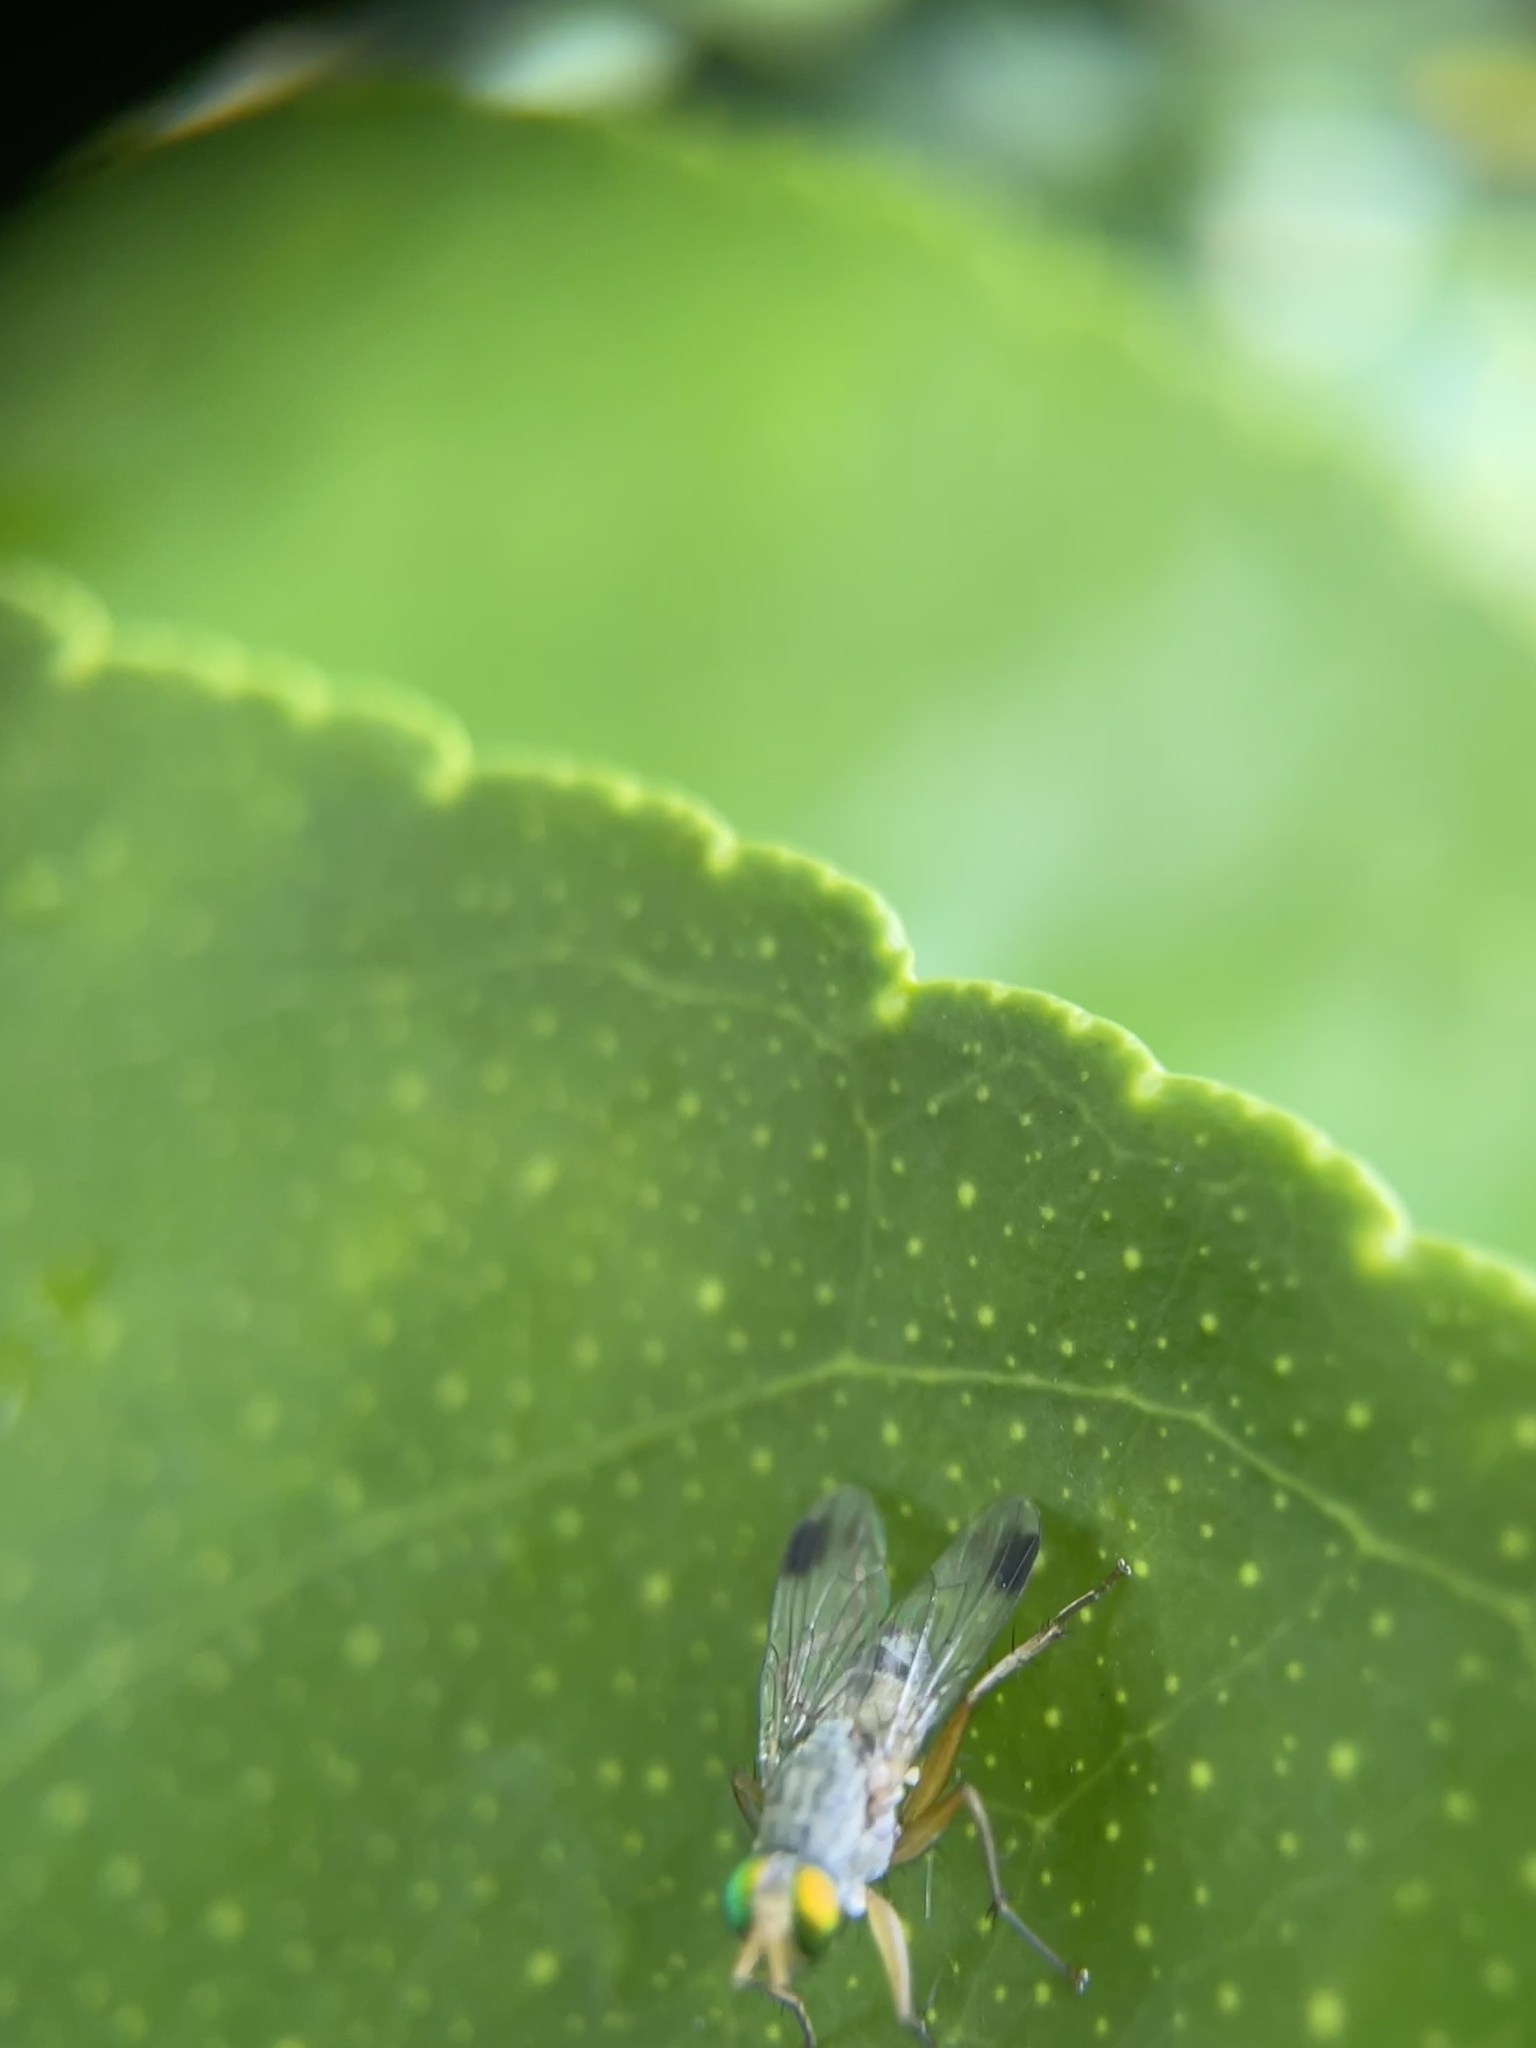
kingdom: Animalia
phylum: Arthropoda
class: Insecta
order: Diptera
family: Muscidae
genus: Pygophora
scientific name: Pygophora apicalis
